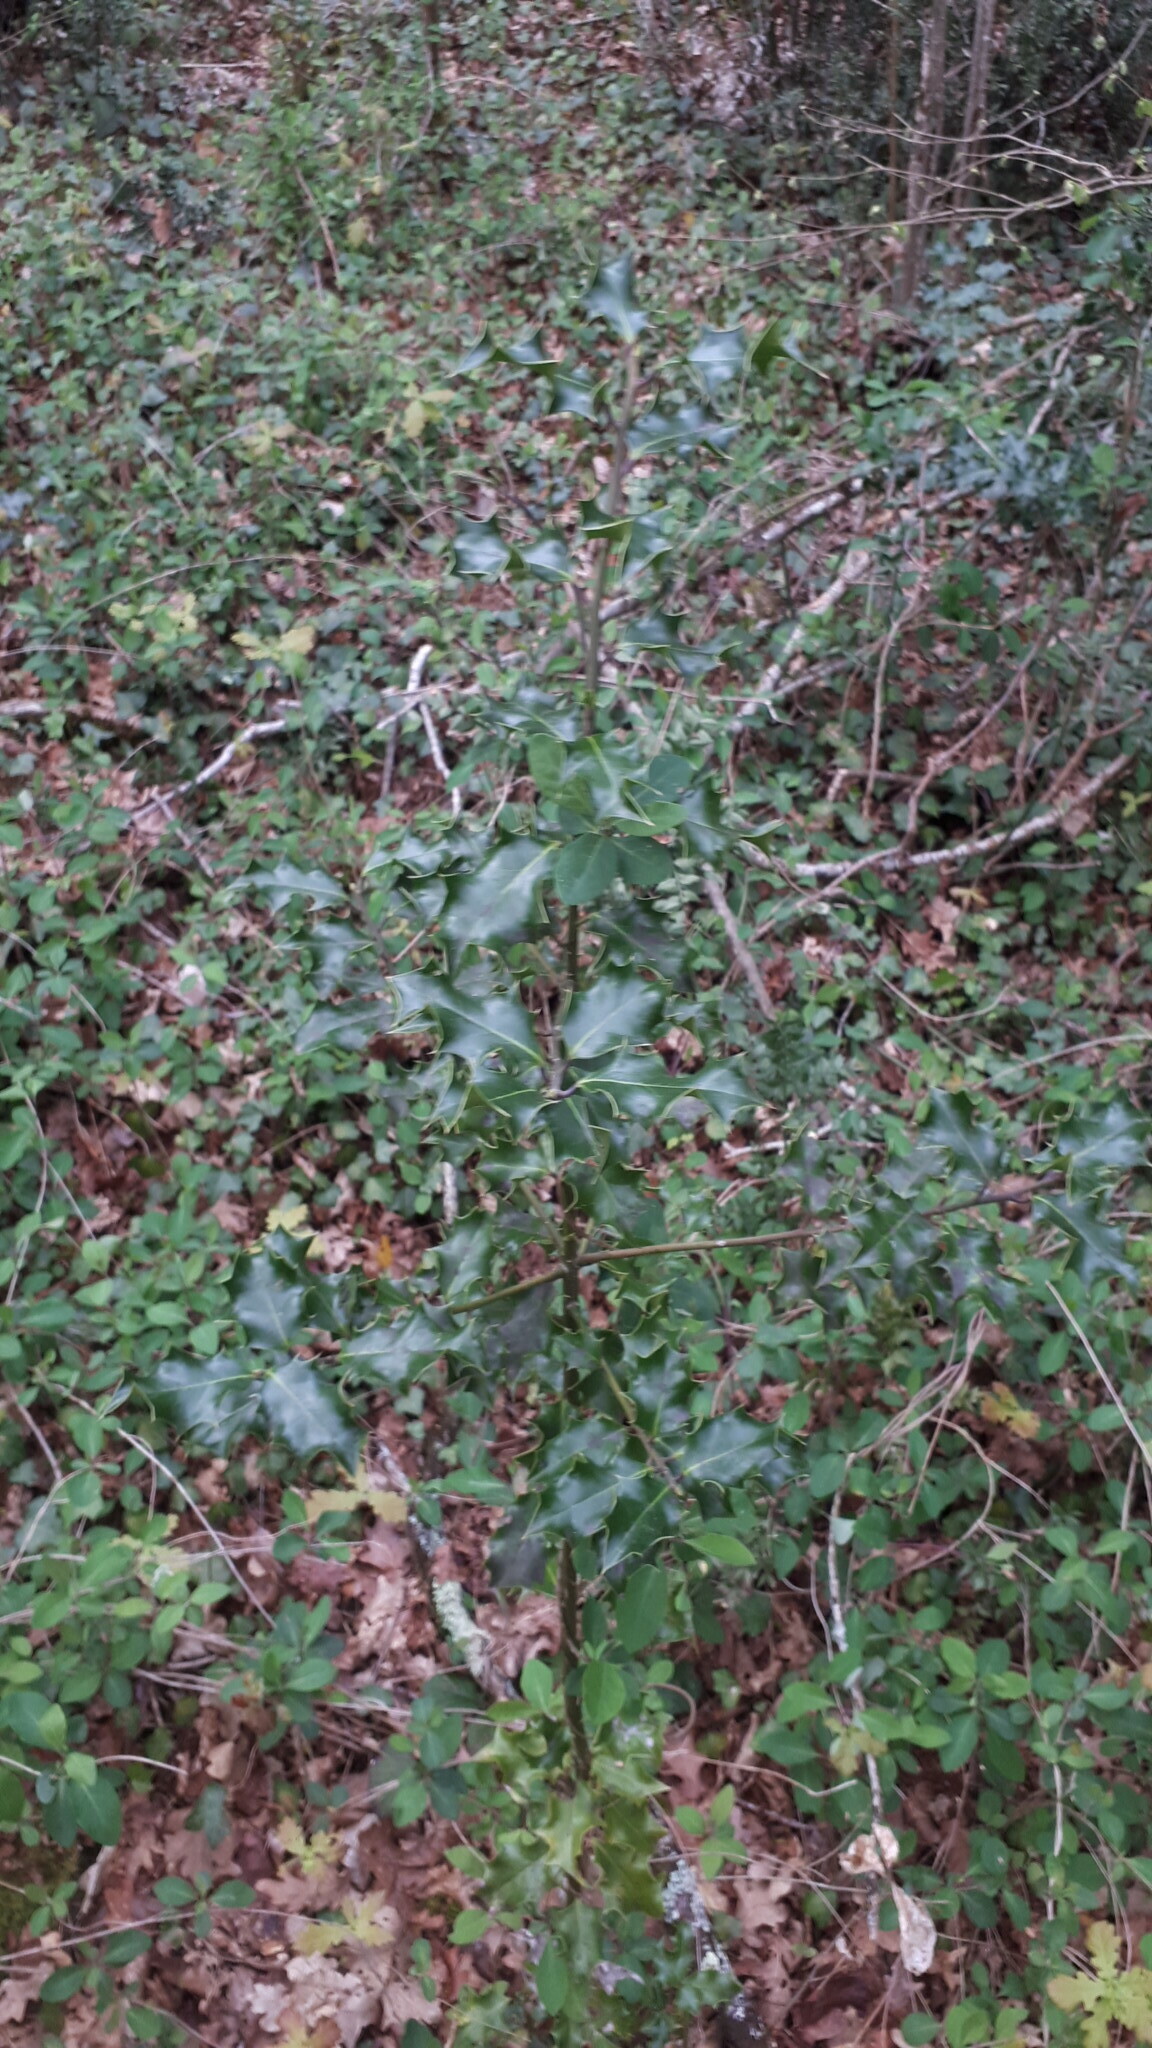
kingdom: Plantae
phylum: Tracheophyta
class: Magnoliopsida
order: Aquifoliales
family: Aquifoliaceae
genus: Ilex
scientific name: Ilex aquifolium
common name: English holly
